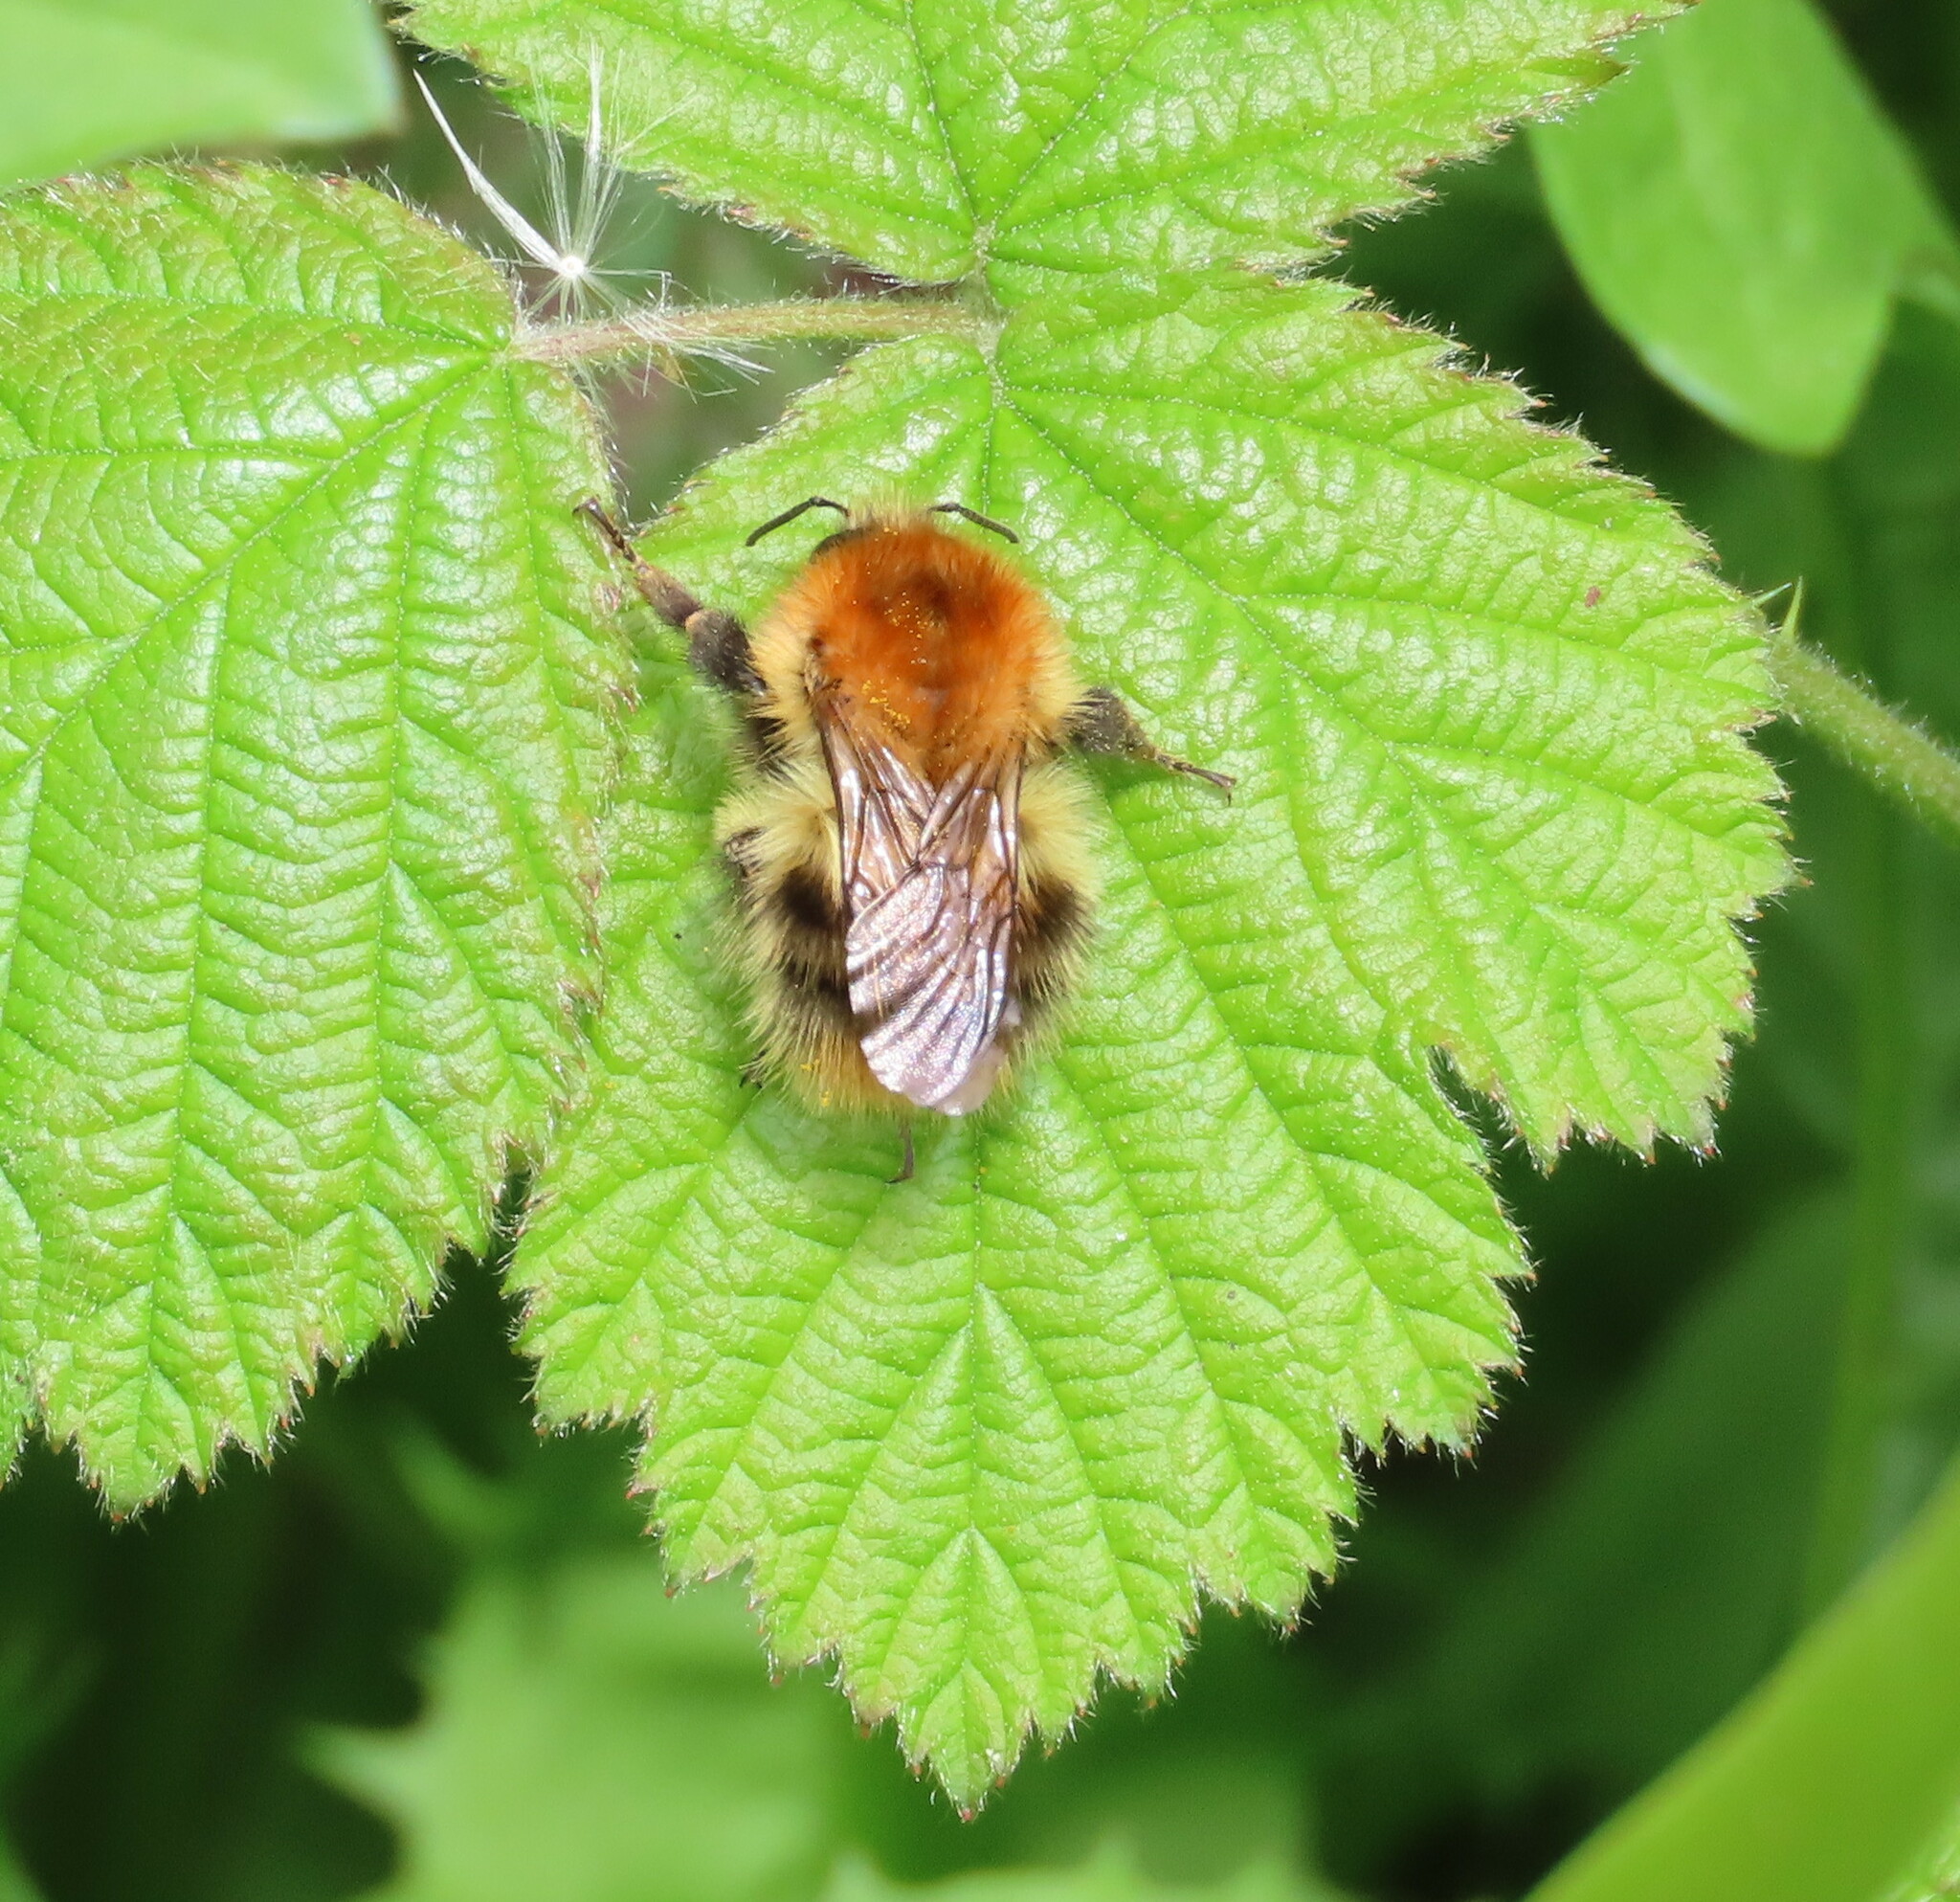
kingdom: Animalia
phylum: Arthropoda
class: Insecta
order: Hymenoptera
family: Apidae
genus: Bombus
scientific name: Bombus pascuorum
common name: Common carder bee
